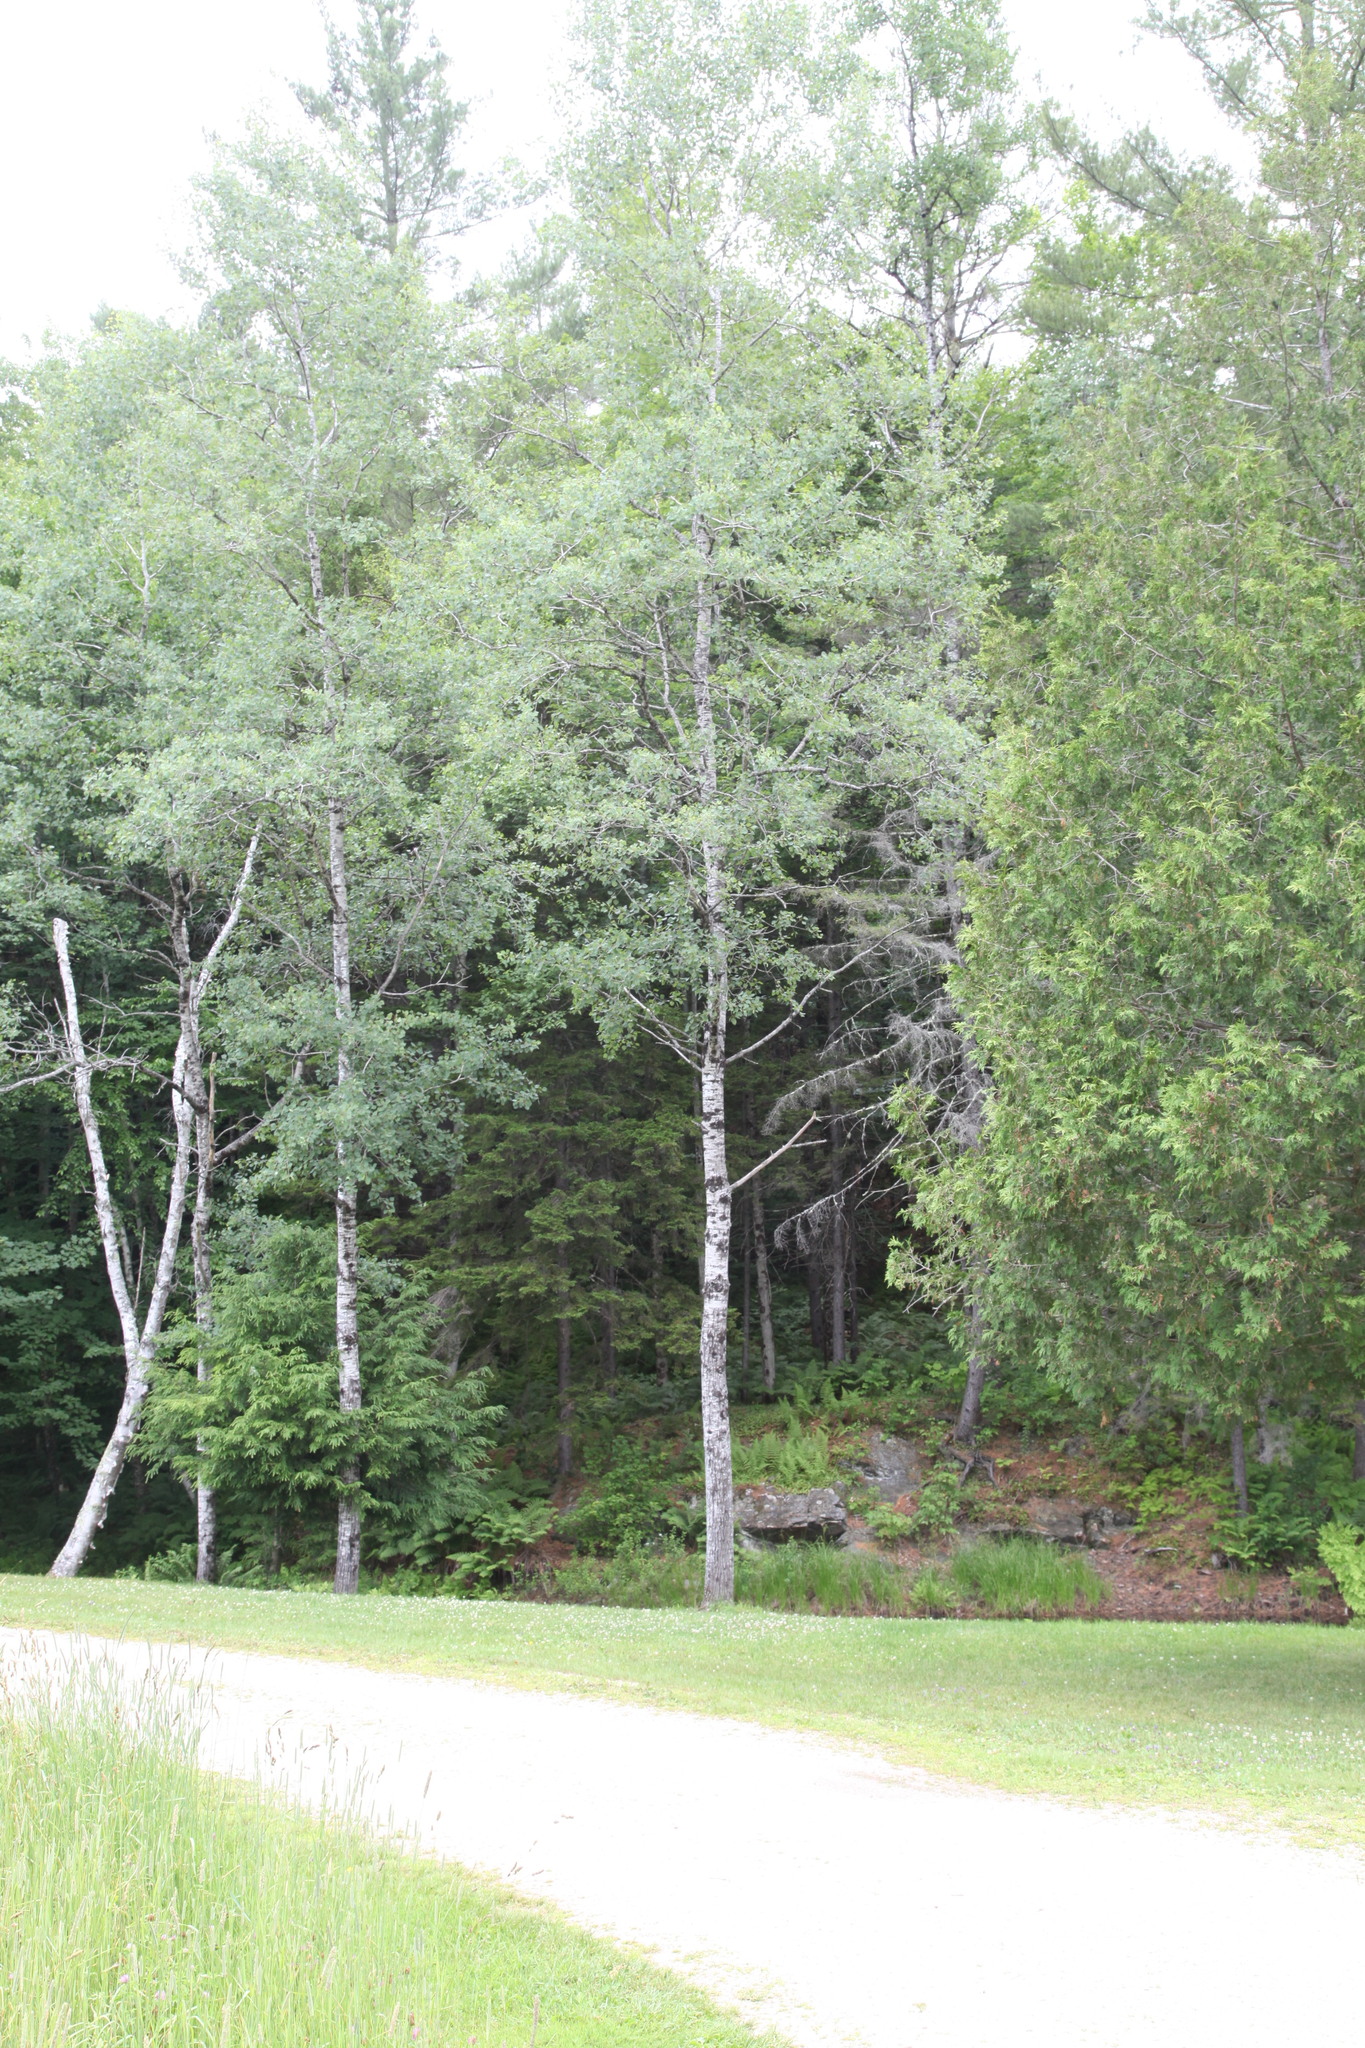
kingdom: Plantae
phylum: Tracheophyta
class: Magnoliopsida
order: Malpighiales
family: Salicaceae
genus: Populus
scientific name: Populus tremuloides
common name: Quaking aspen
